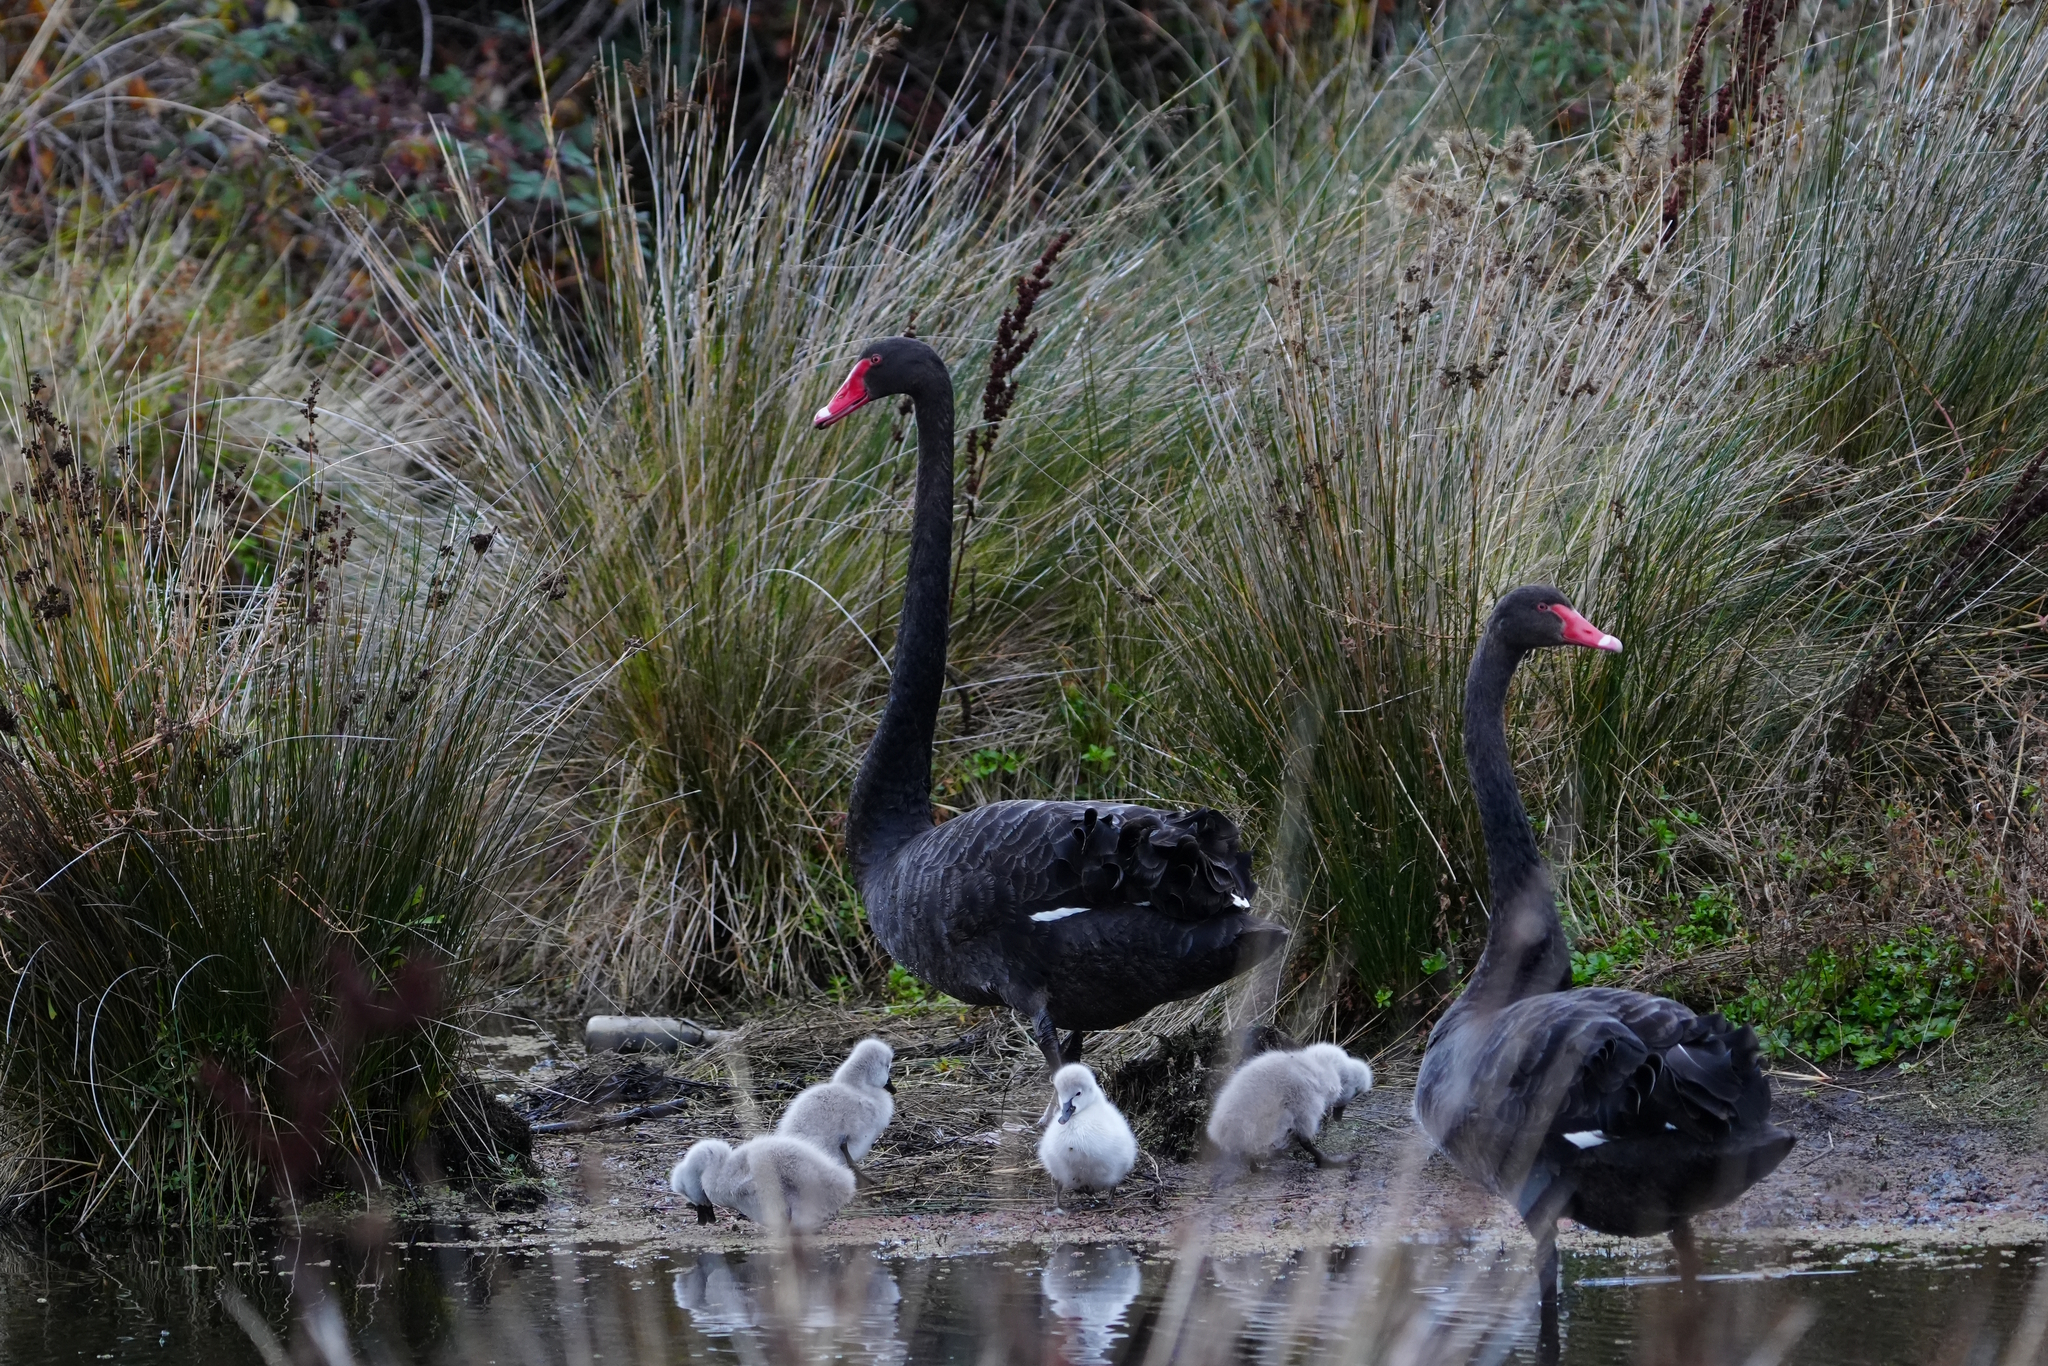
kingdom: Animalia
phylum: Chordata
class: Aves
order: Anseriformes
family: Anatidae
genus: Cygnus
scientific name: Cygnus atratus
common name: Black swan
